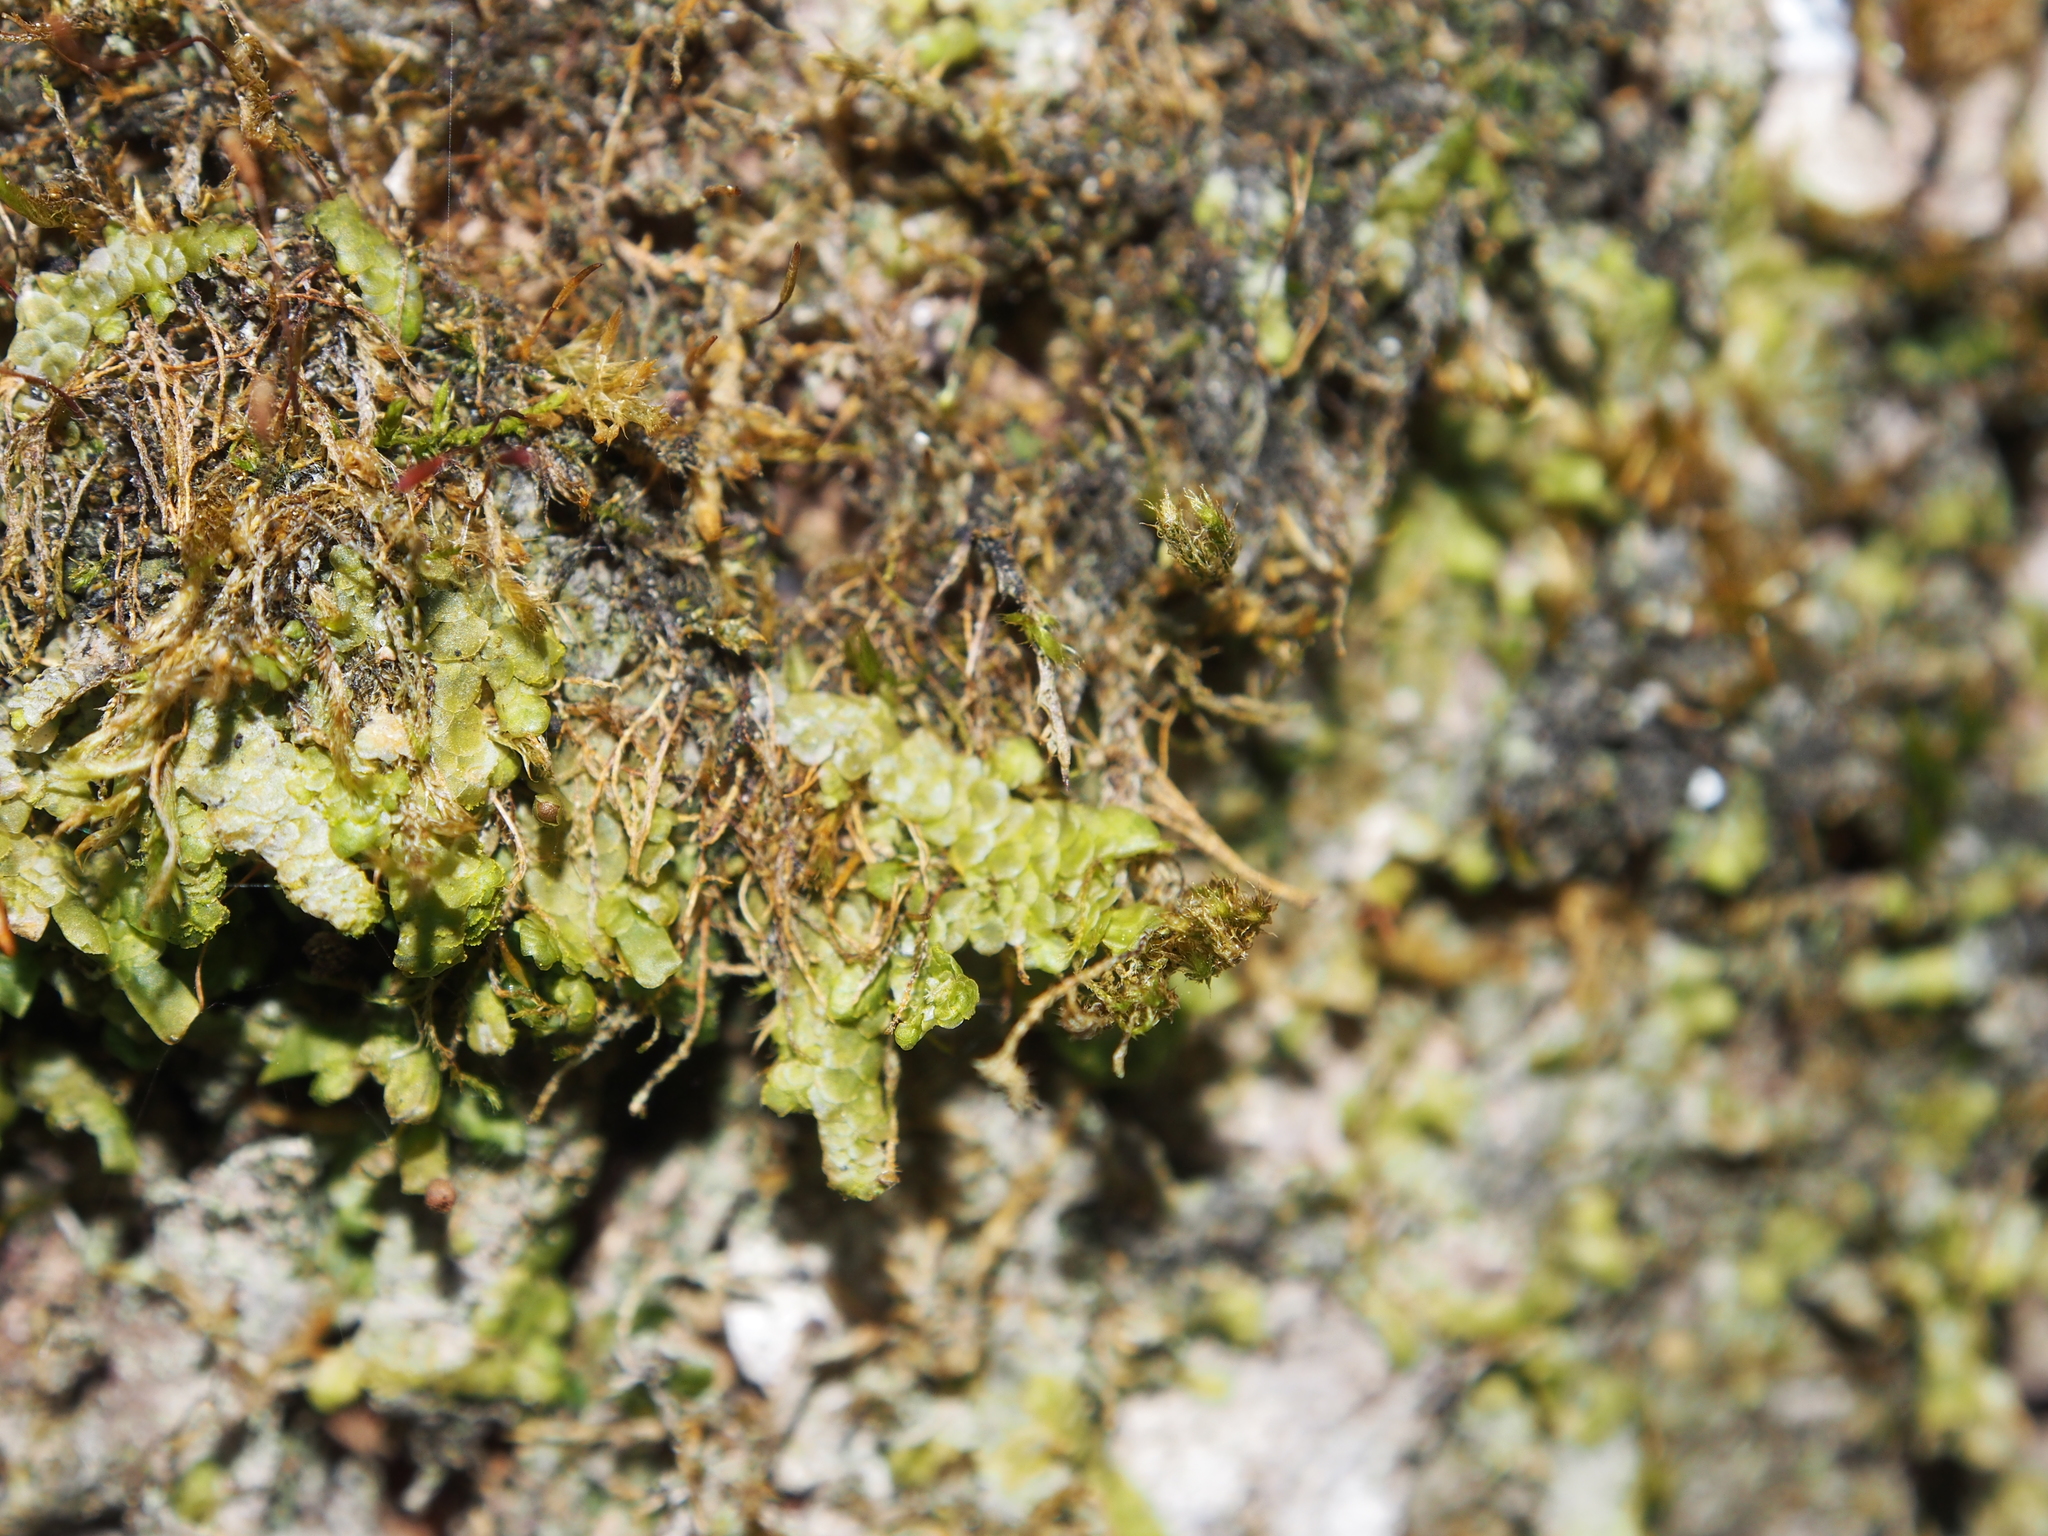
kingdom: Plantae
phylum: Marchantiophyta
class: Jungermanniopsida
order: Porellales
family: Radulaceae
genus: Radula
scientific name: Radula complanata
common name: Flat-leaved scalewort
